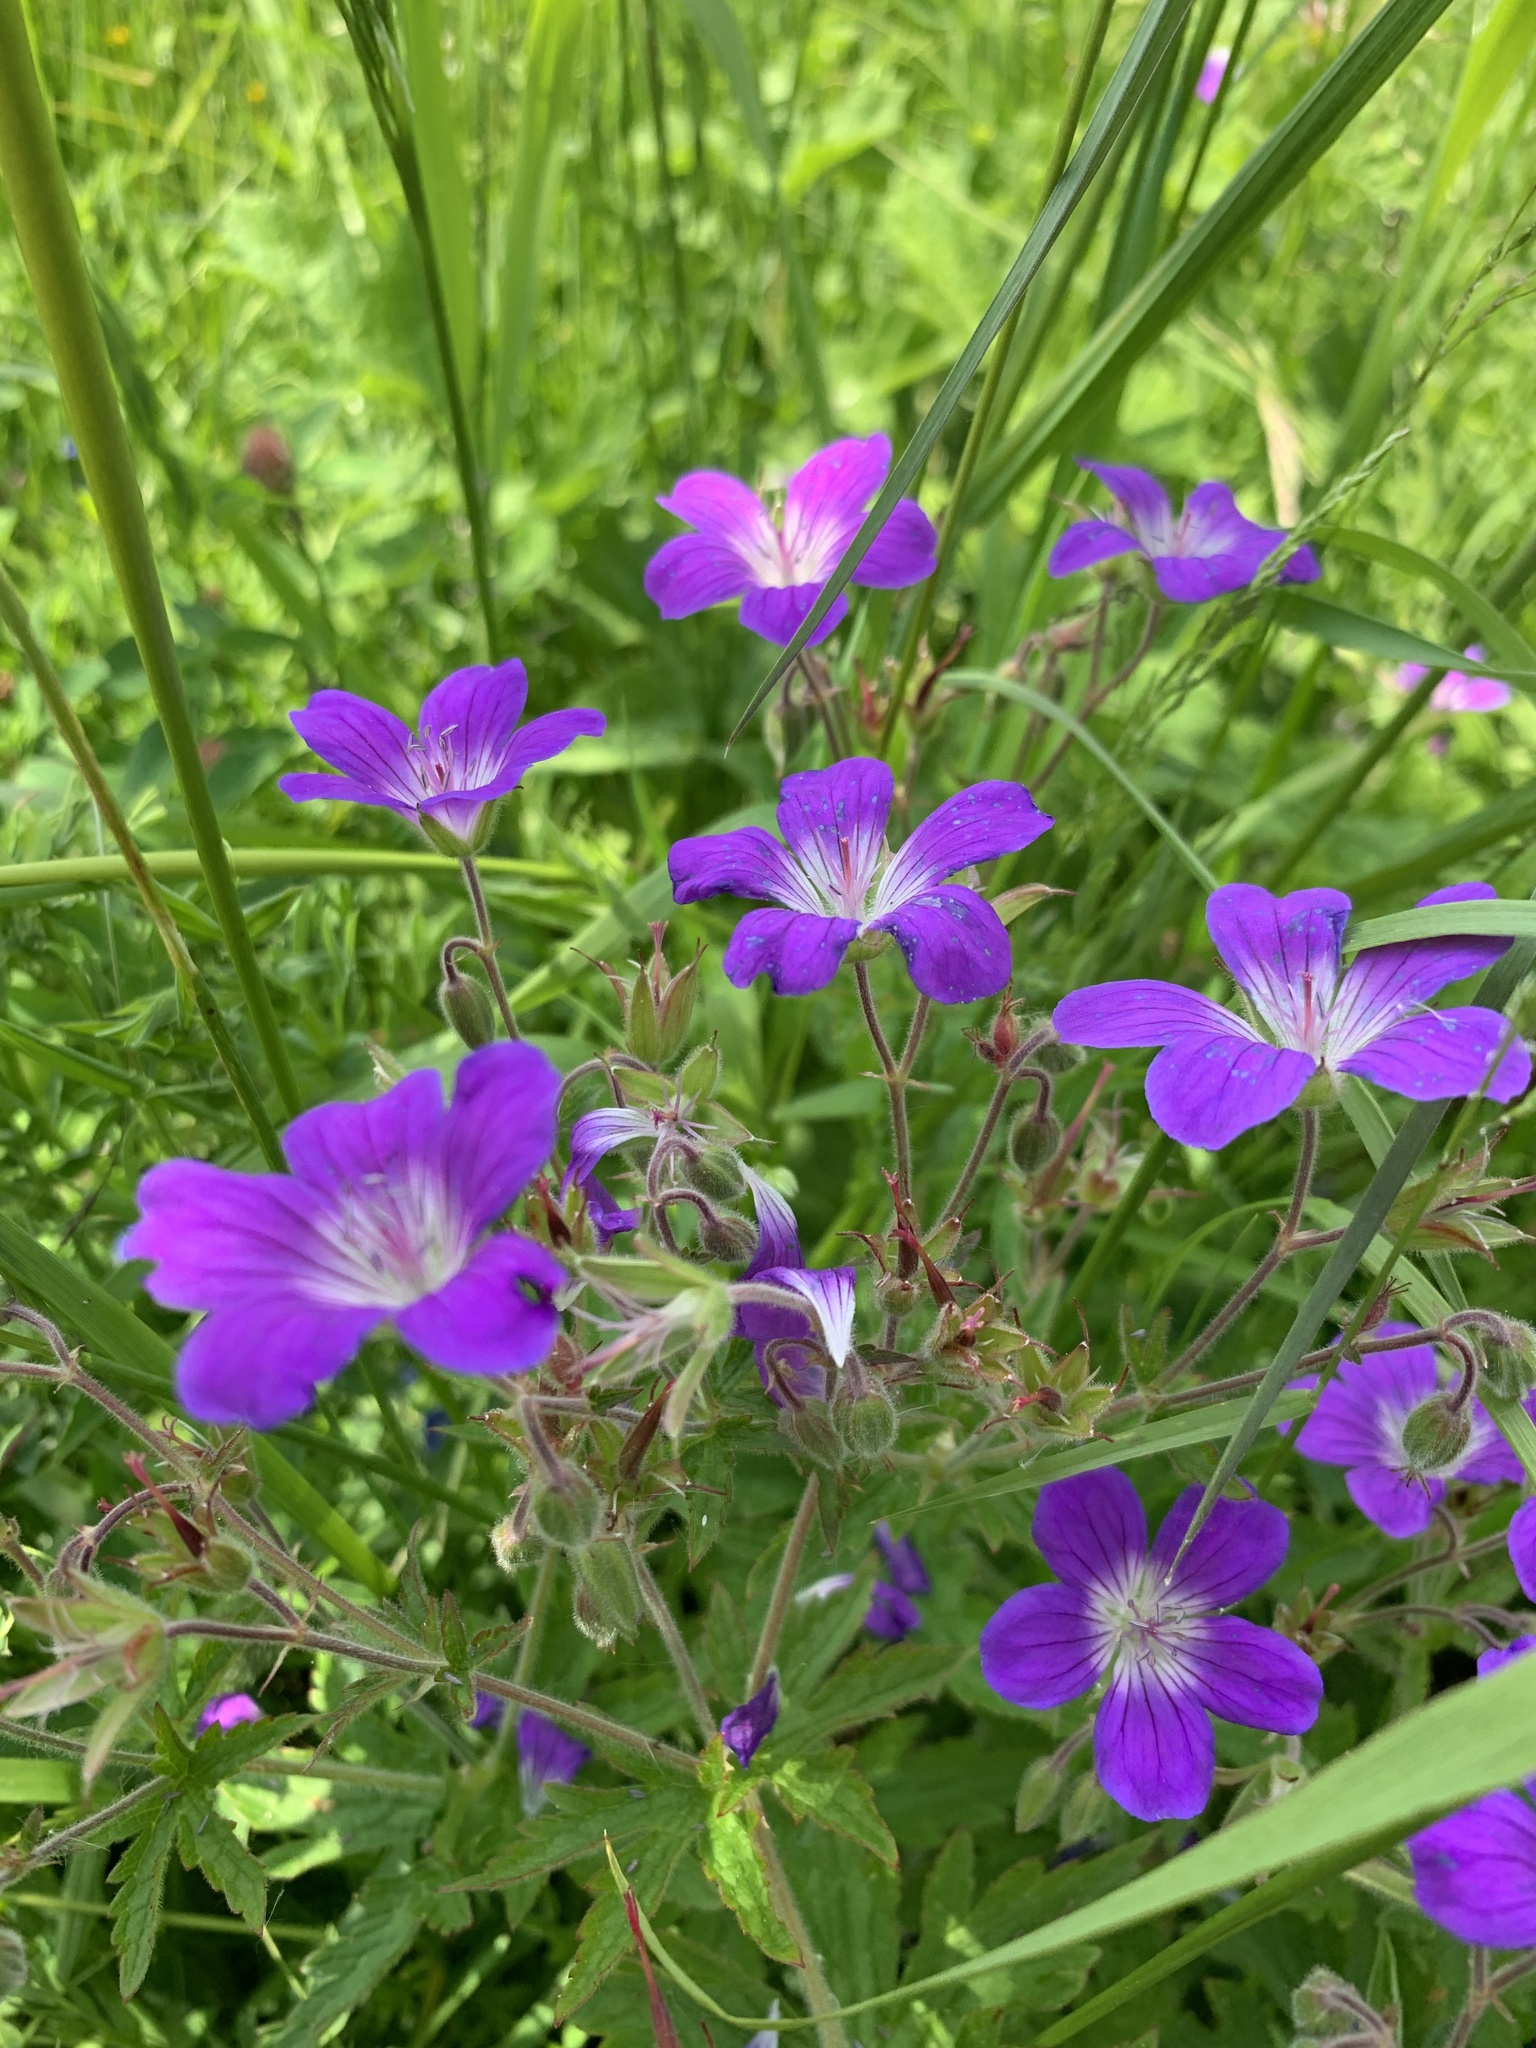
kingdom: Plantae
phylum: Tracheophyta
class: Magnoliopsida
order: Geraniales
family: Geraniaceae
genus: Geranium
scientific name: Geranium sylvaticum
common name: Wood crane's-bill
